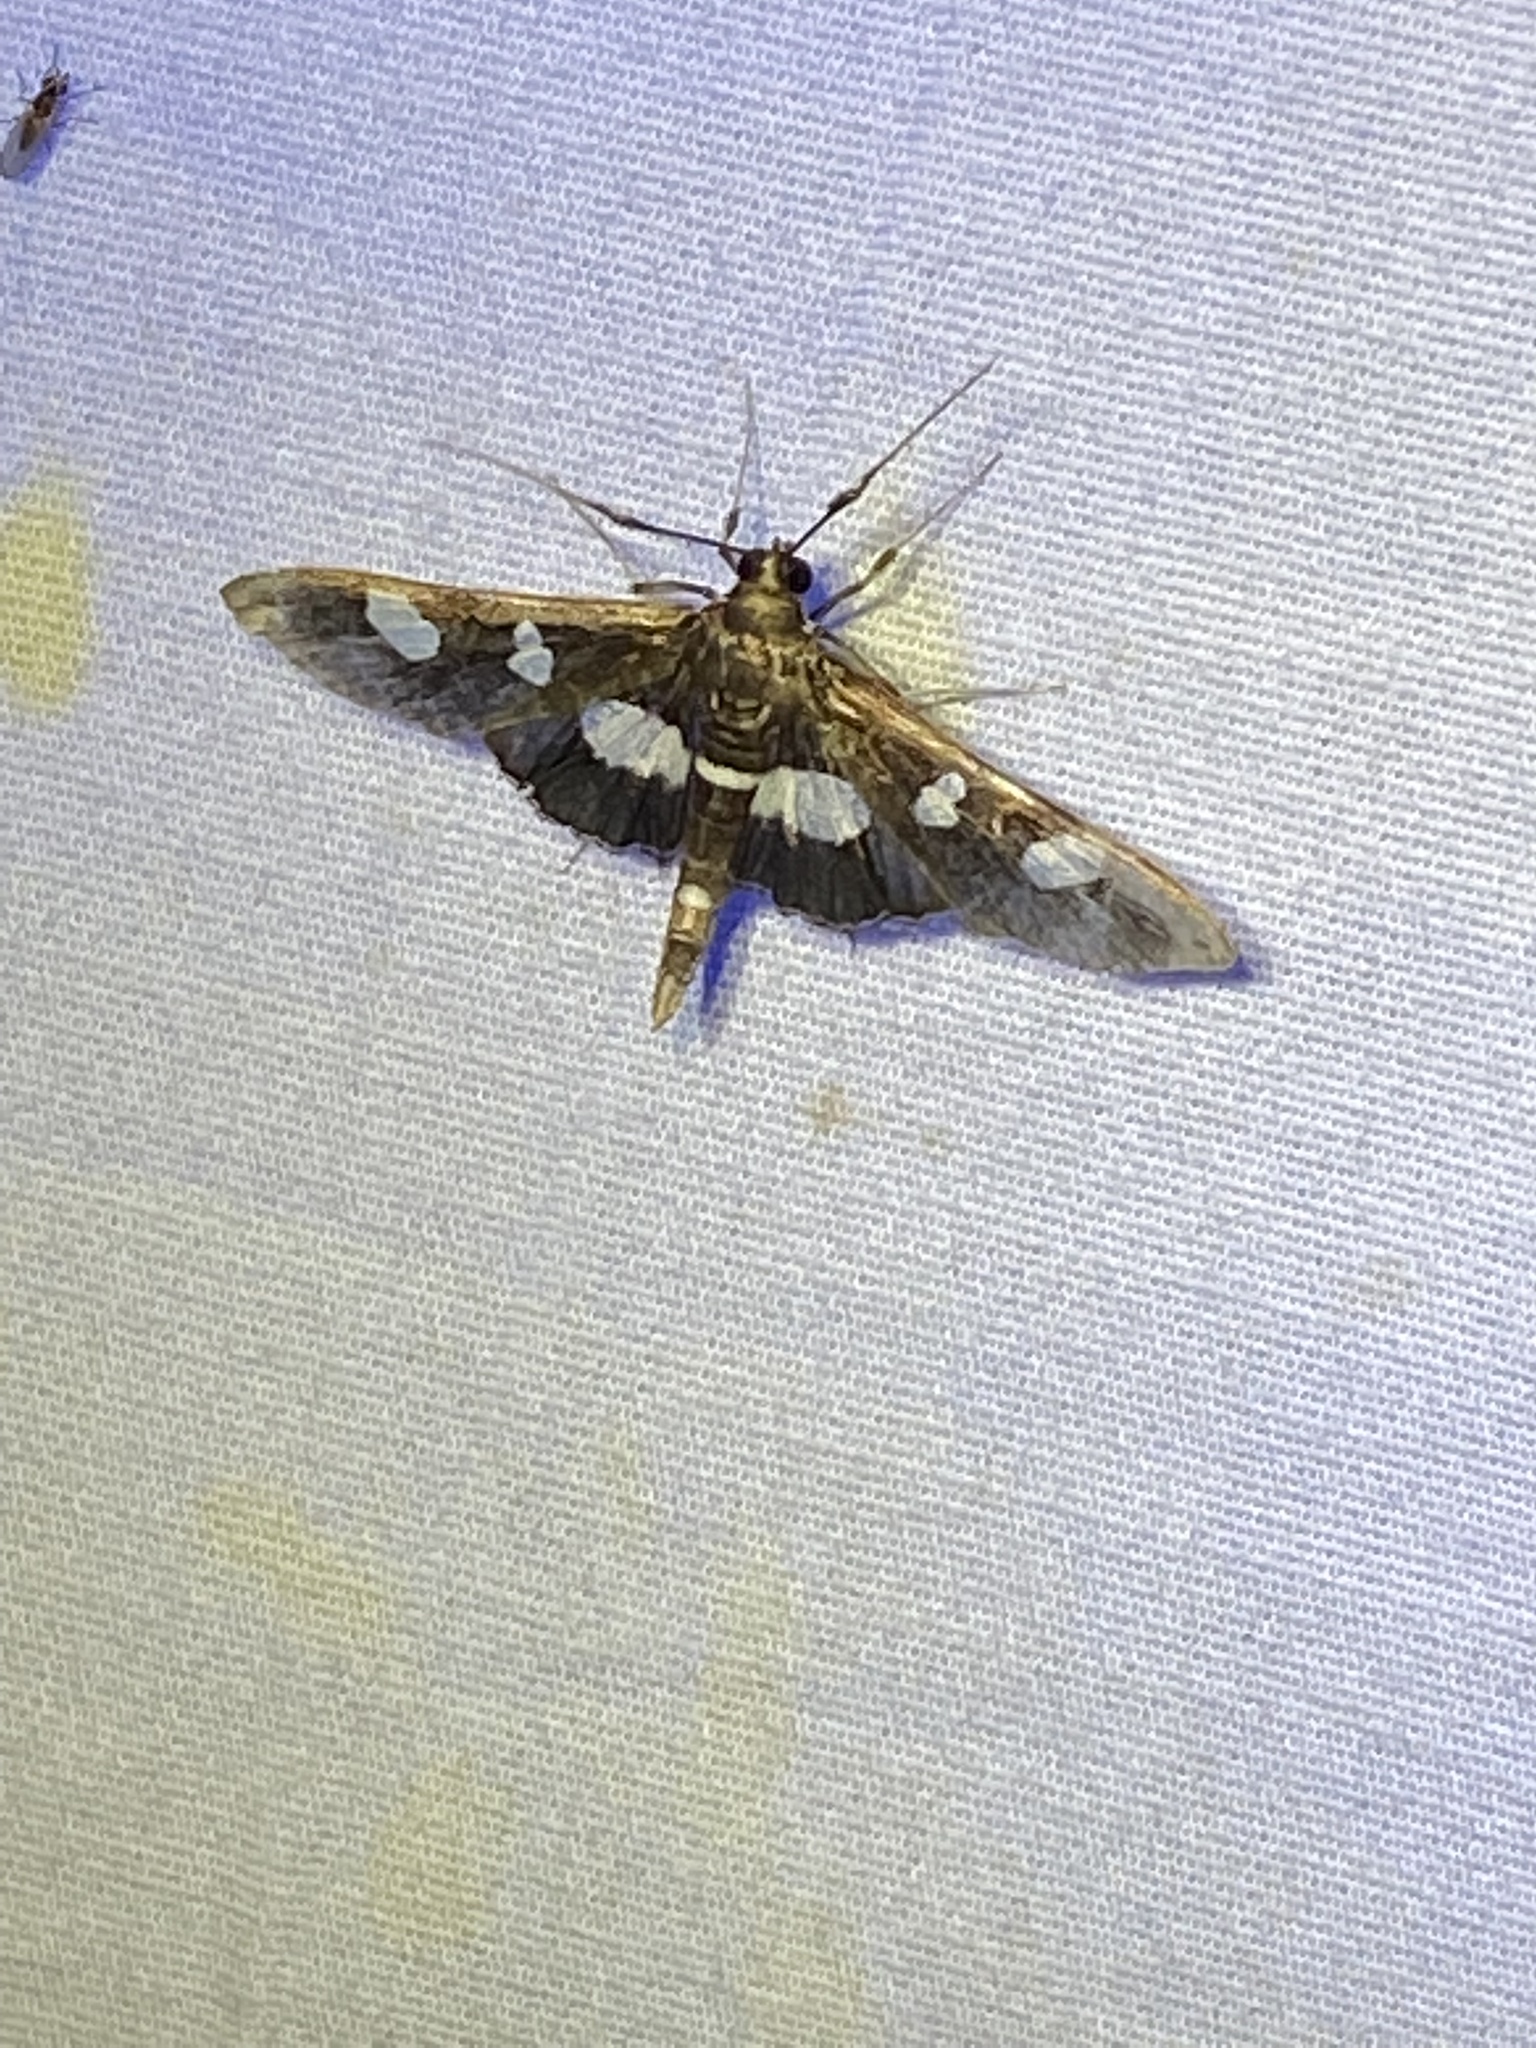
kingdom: Animalia
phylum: Arthropoda
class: Insecta
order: Lepidoptera
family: Crambidae
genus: Desmia
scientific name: Desmia
